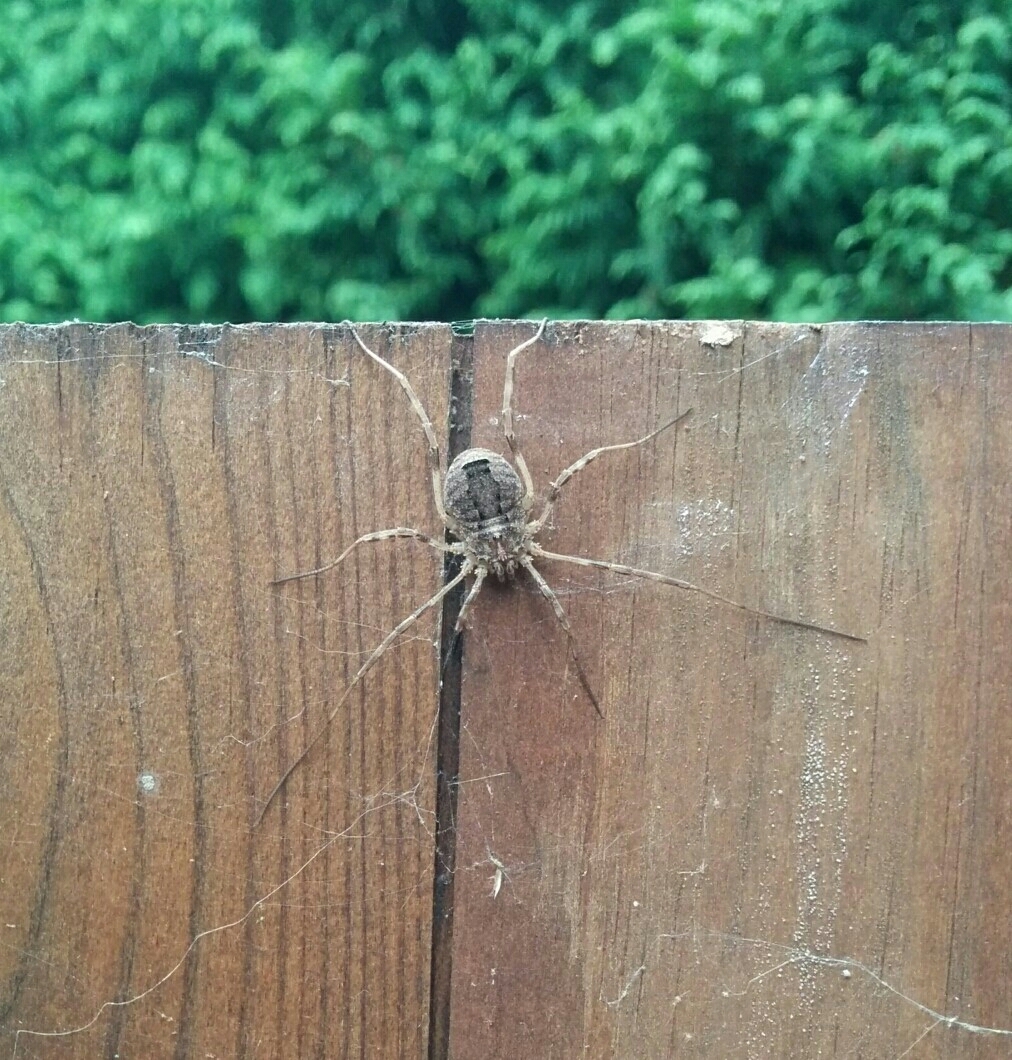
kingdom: Animalia
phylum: Arthropoda
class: Arachnida
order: Opiliones
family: Phalangiidae
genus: Odiellus
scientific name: Odiellus spinosus
